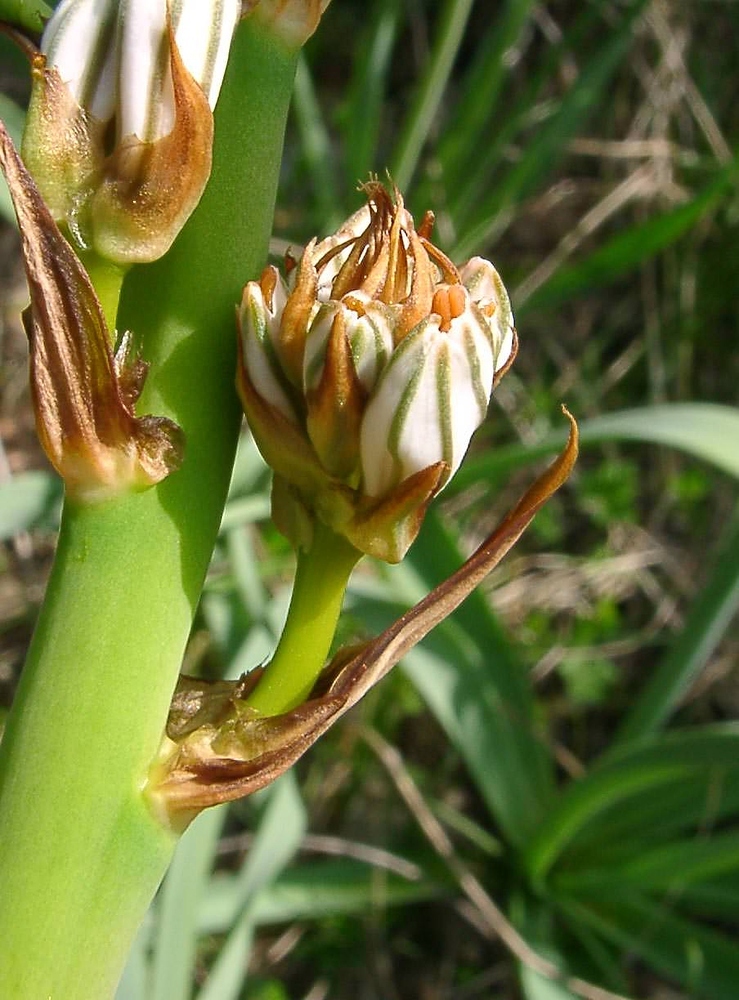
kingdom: Plantae
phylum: Tracheophyta
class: Liliopsida
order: Asparagales
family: Asphodelaceae
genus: Asphodelus
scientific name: Asphodelus cerasifer
